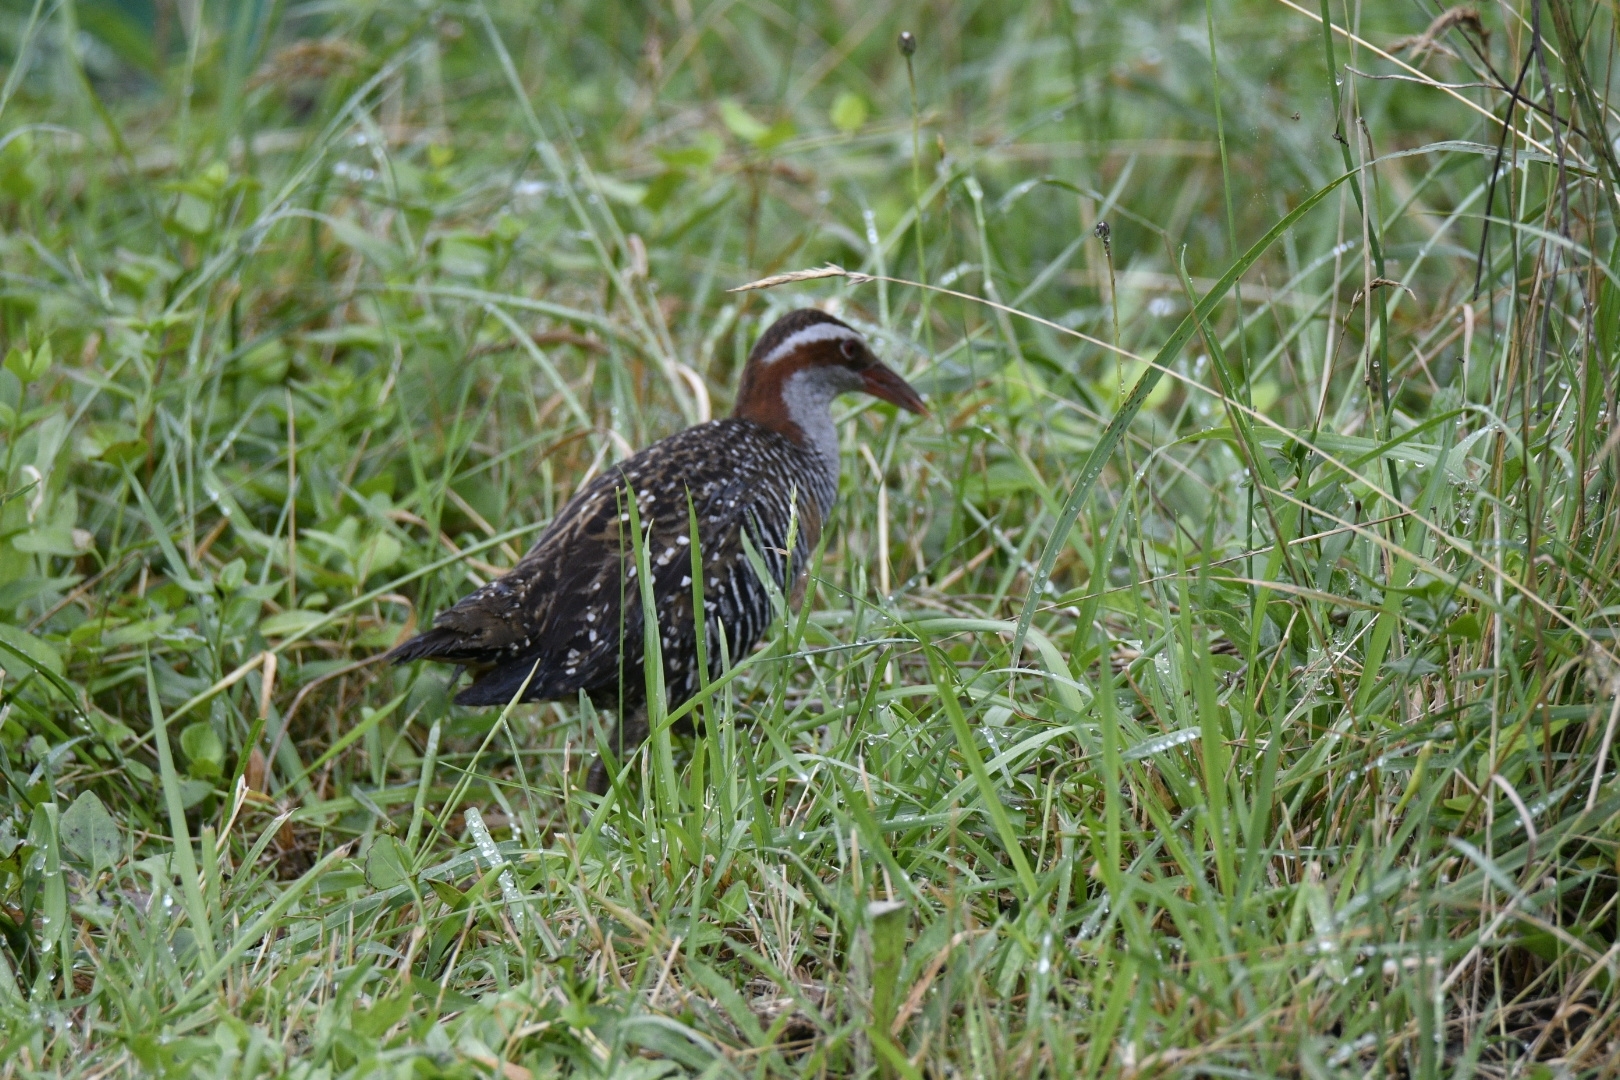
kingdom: Animalia
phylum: Chordata
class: Aves
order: Gruiformes
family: Rallidae
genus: Gallirallus
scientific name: Gallirallus philippensis
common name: Buff-banded rail
